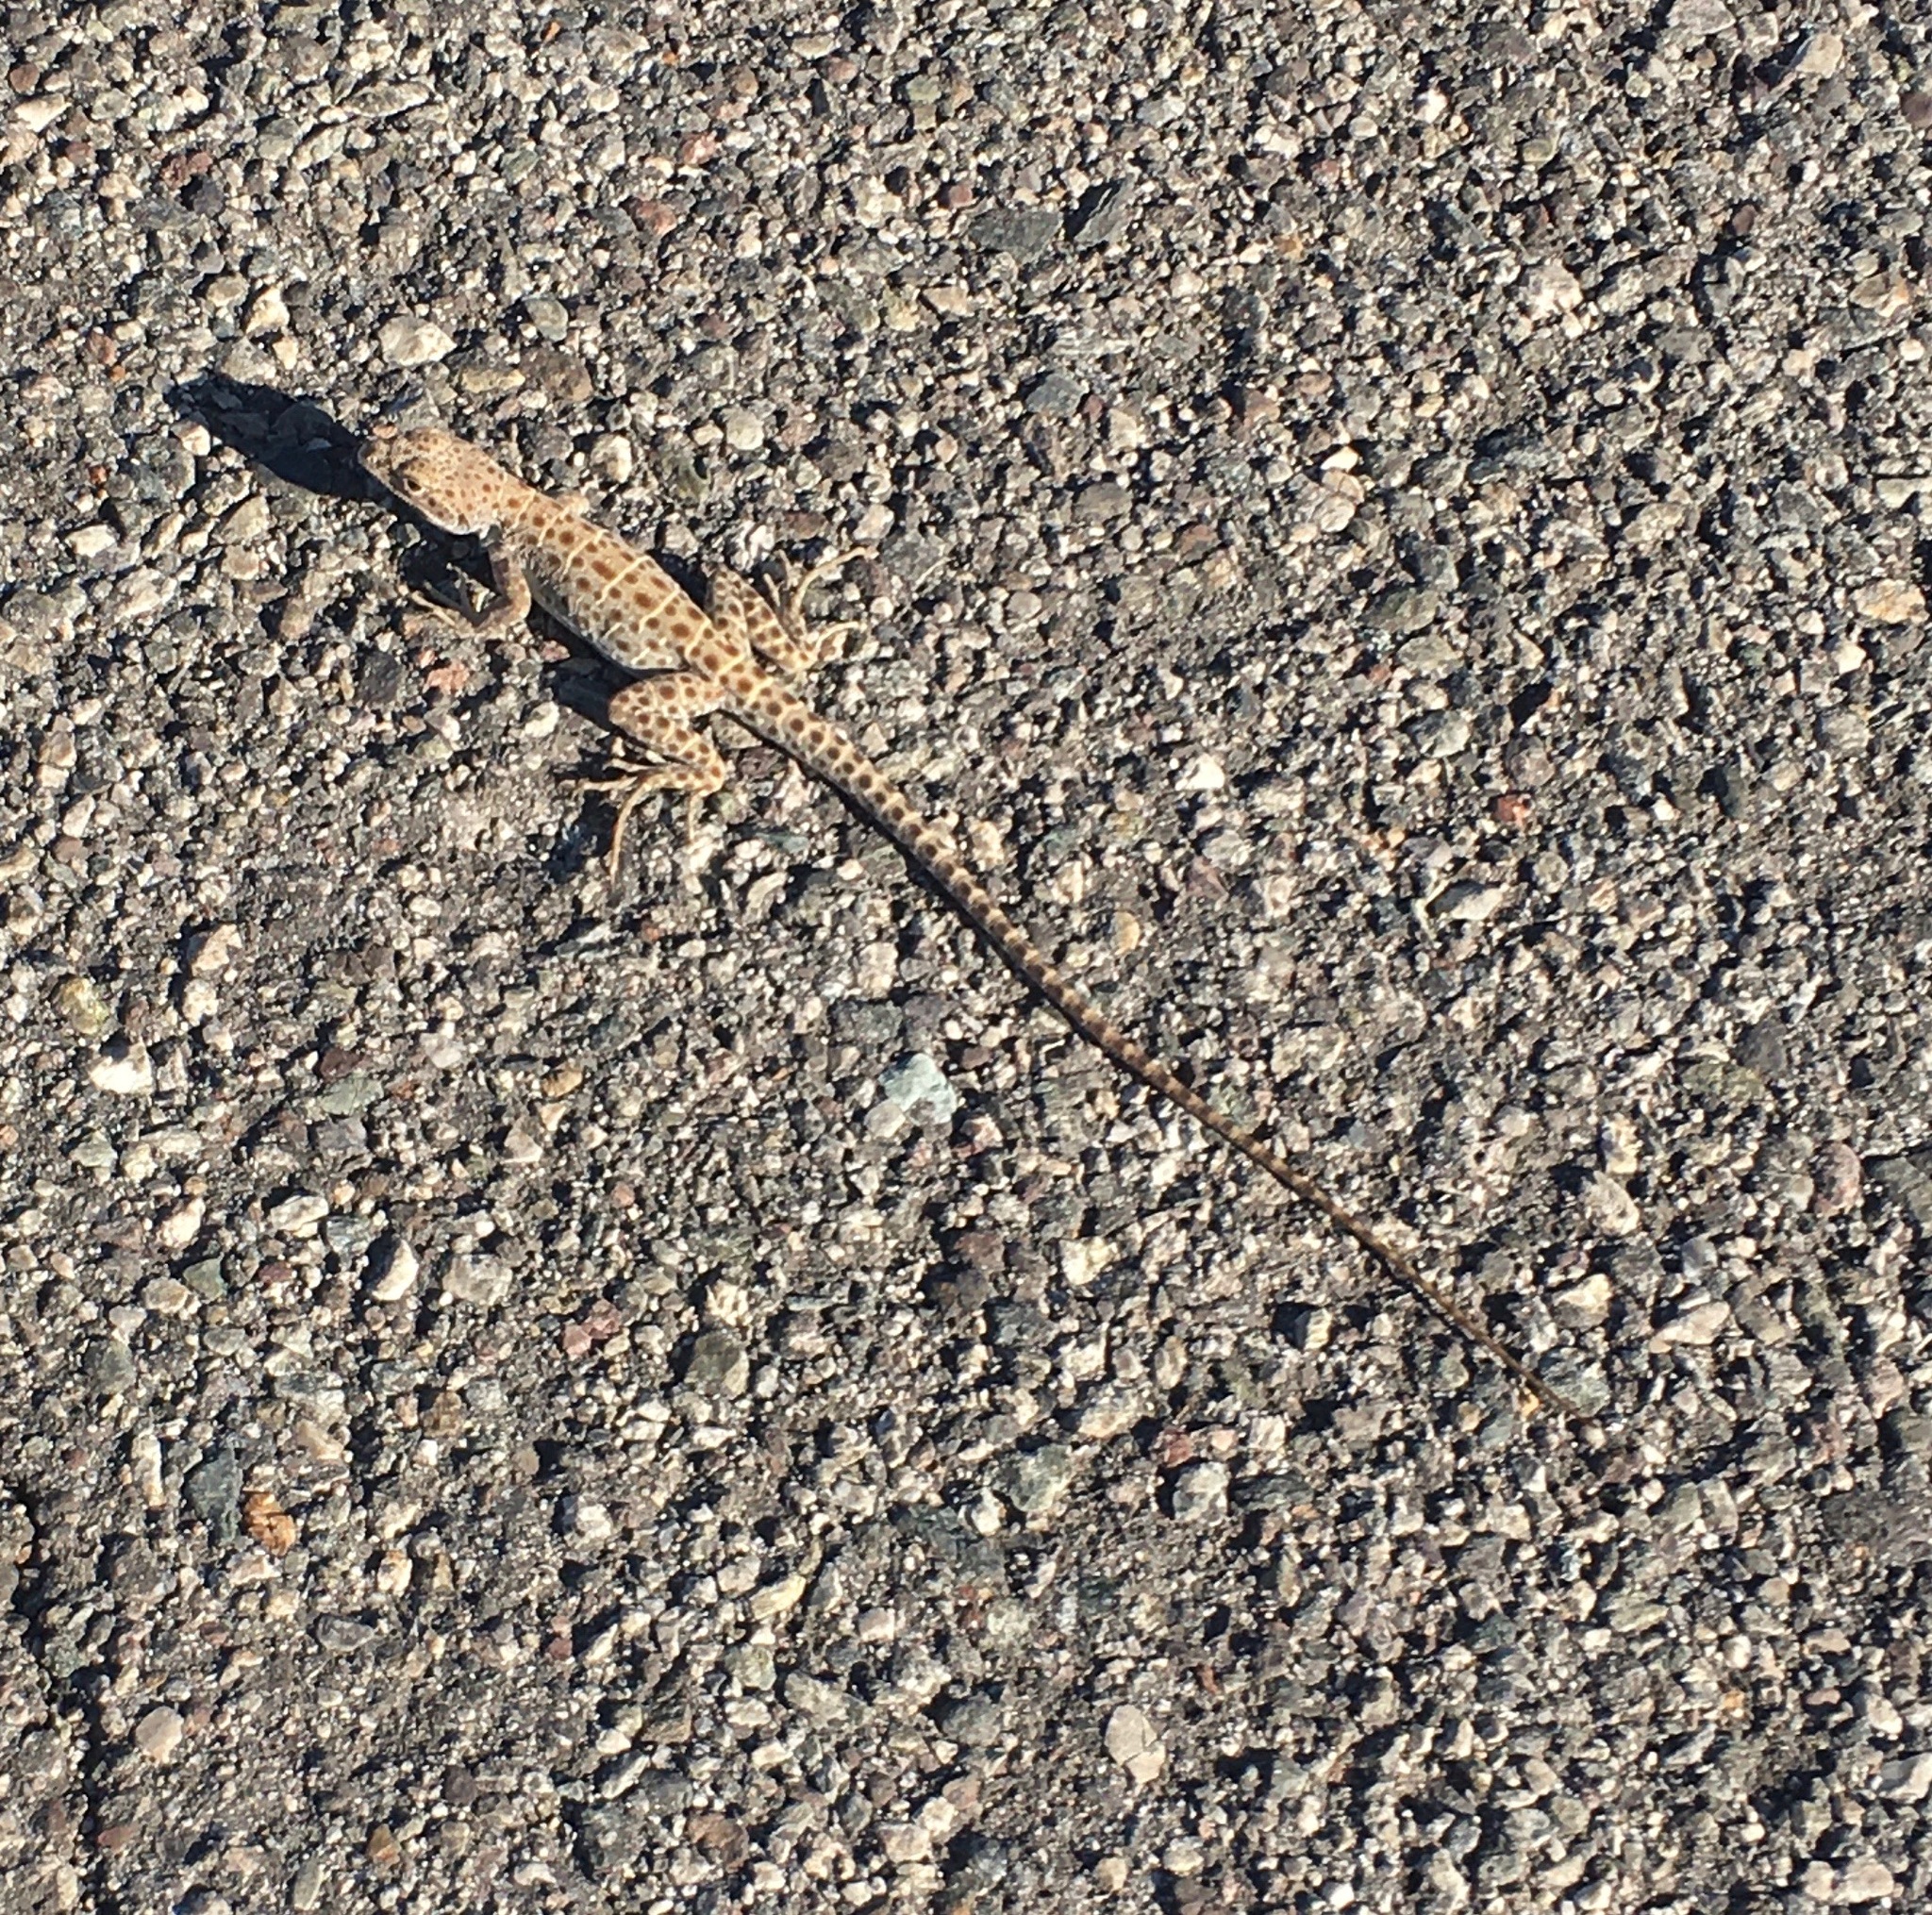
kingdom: Animalia
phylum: Chordata
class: Squamata
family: Crotaphytidae
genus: Gambelia
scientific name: Gambelia wislizenii
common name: Longnose leopard lizard
